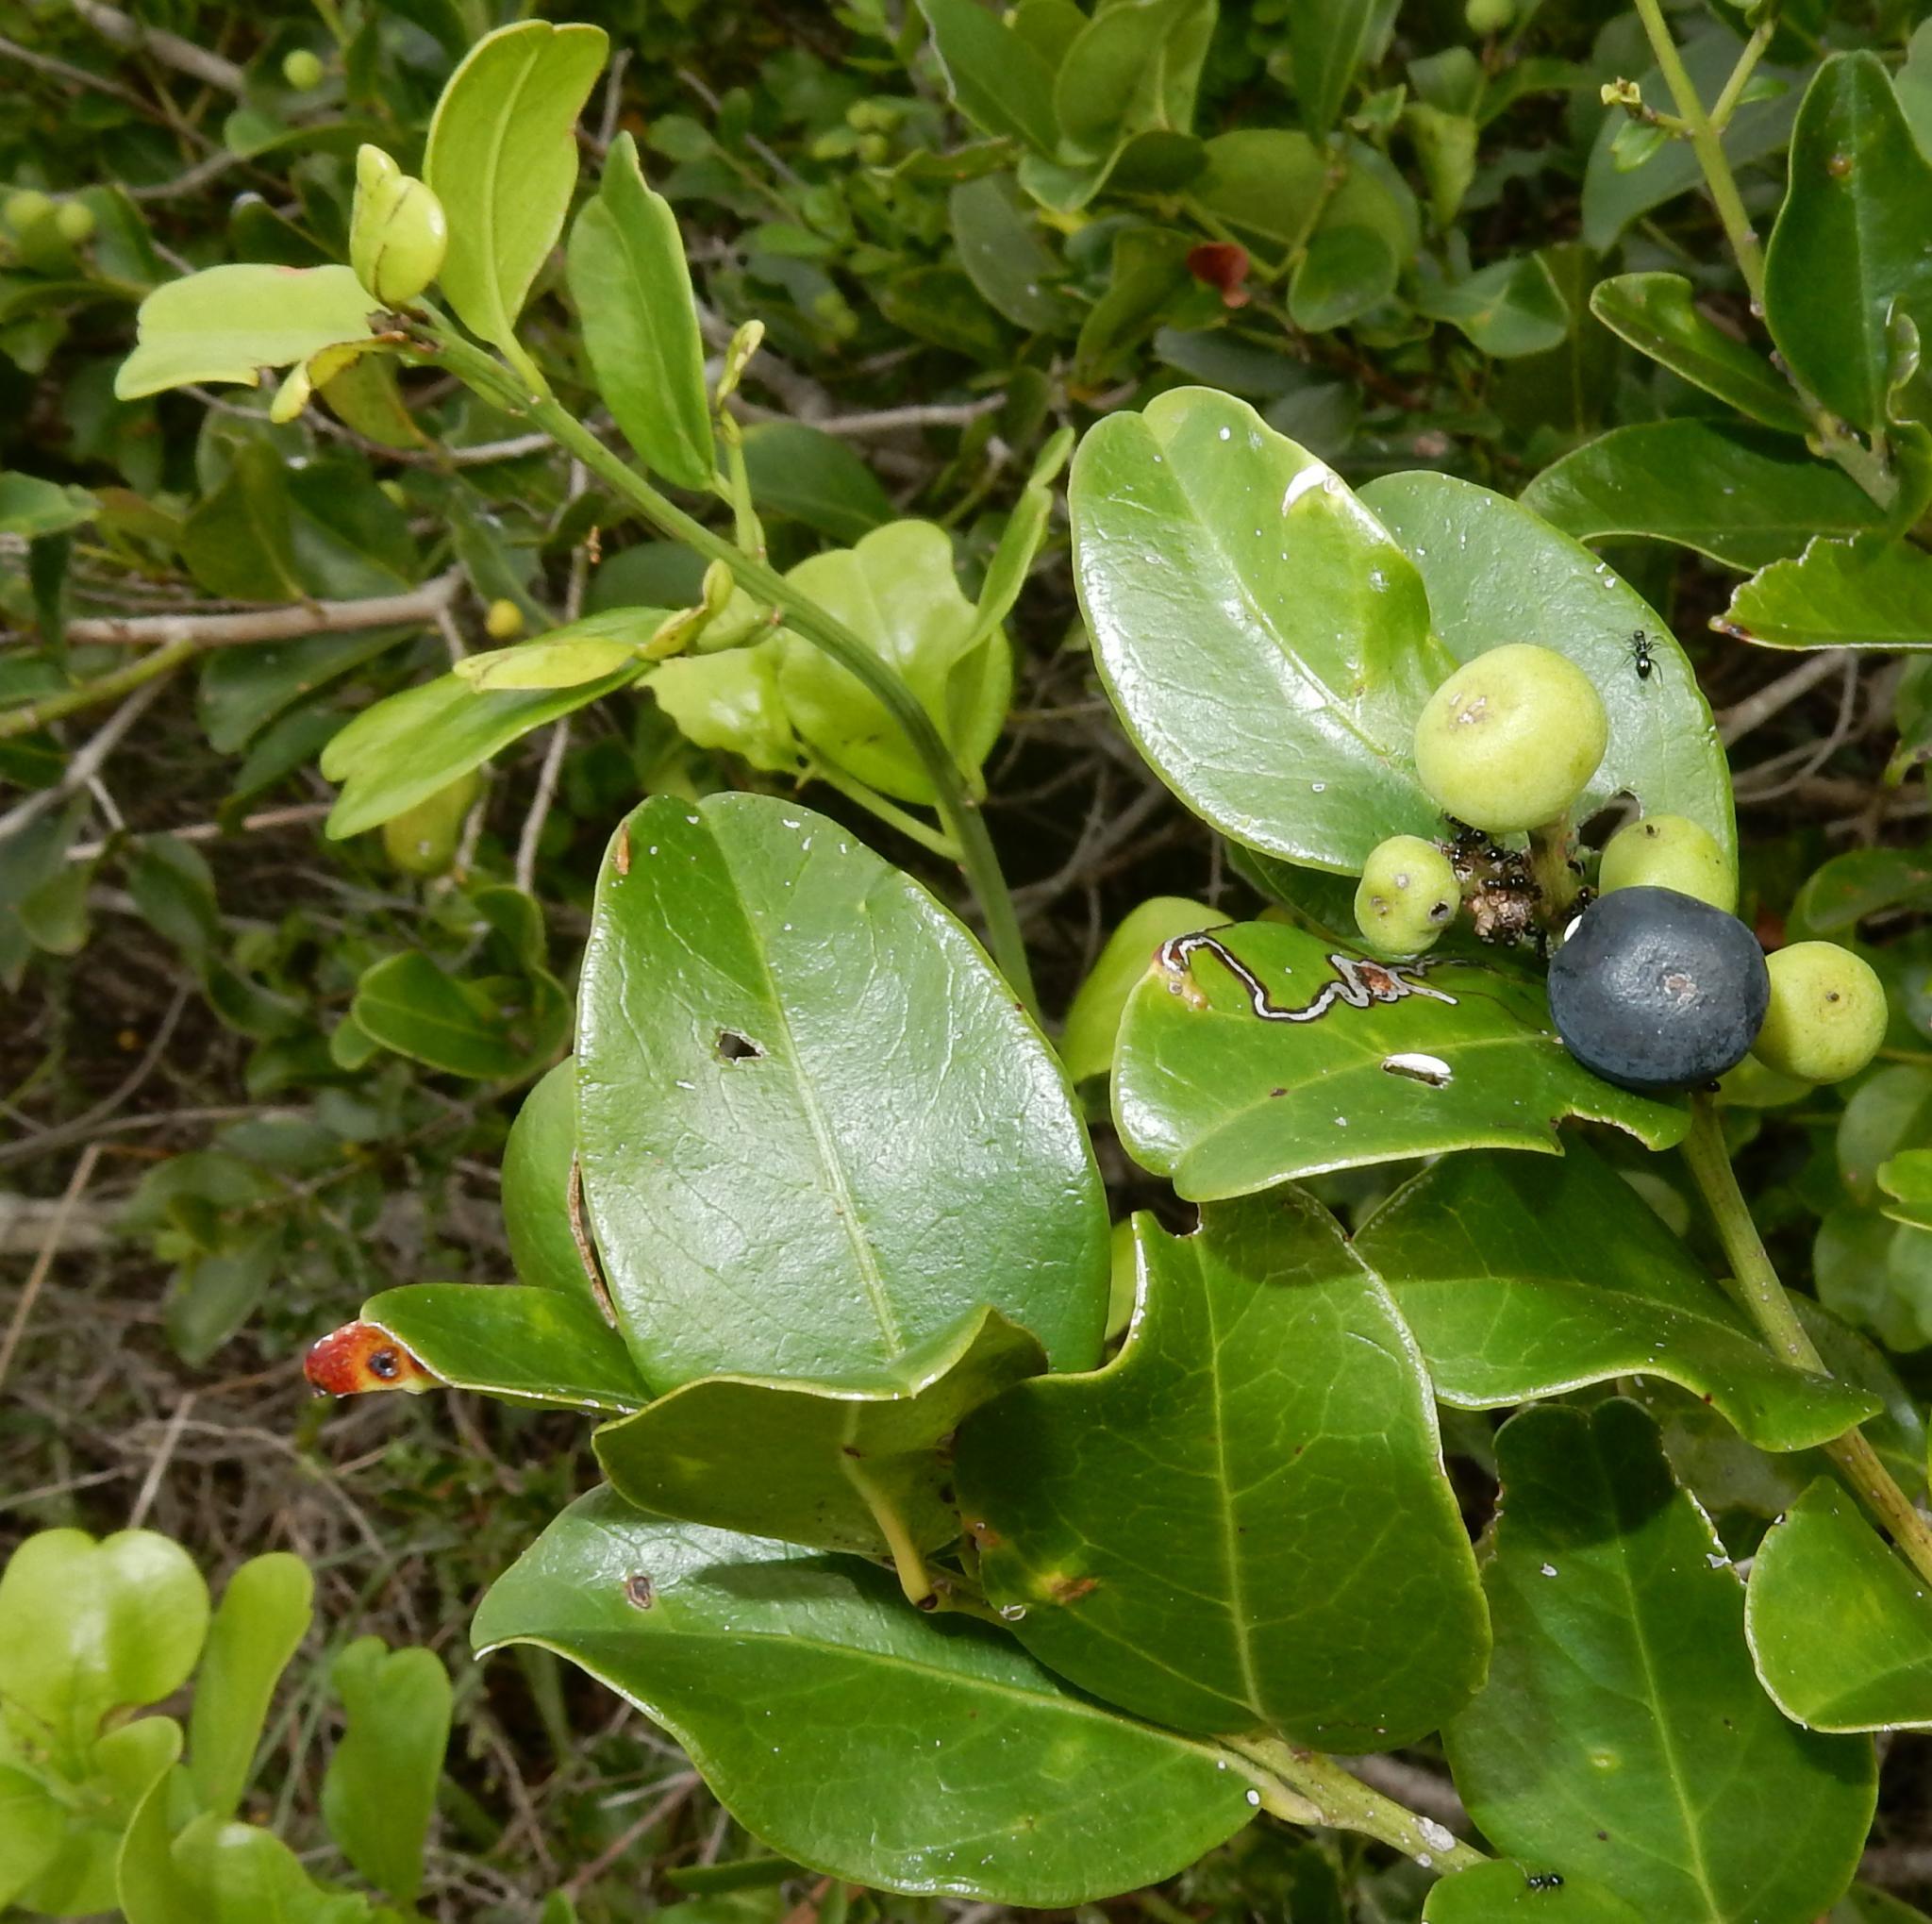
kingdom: Plantae
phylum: Tracheophyta
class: Magnoliopsida
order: Rosales
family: Rhamnaceae
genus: Scutia
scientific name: Scutia myrtina
